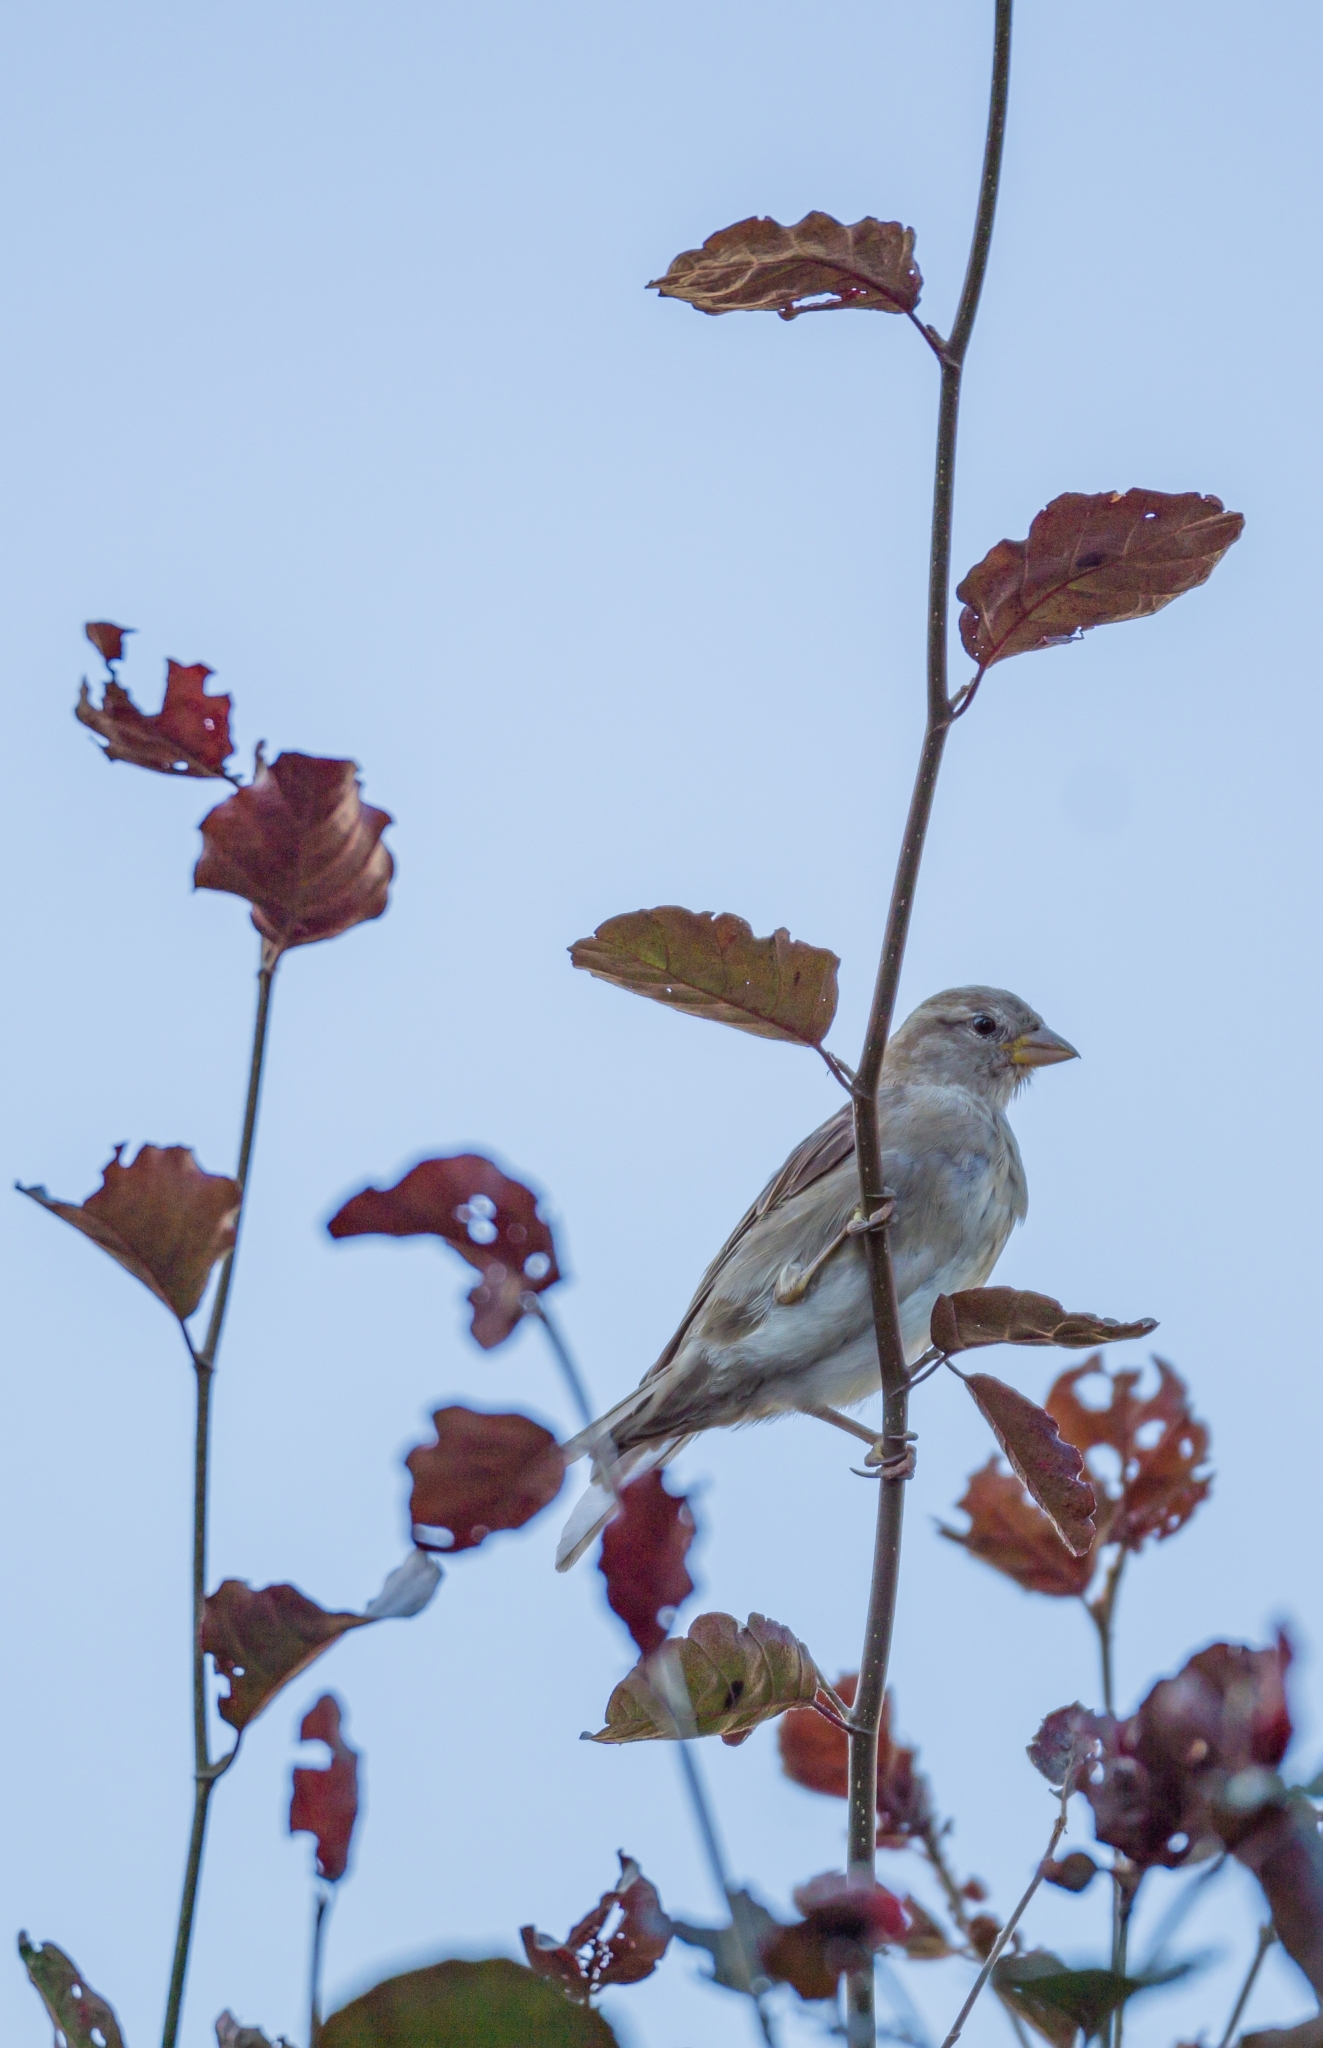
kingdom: Animalia
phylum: Chordata
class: Aves
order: Passeriformes
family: Passeridae
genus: Passer
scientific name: Passer domesticus
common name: House sparrow
